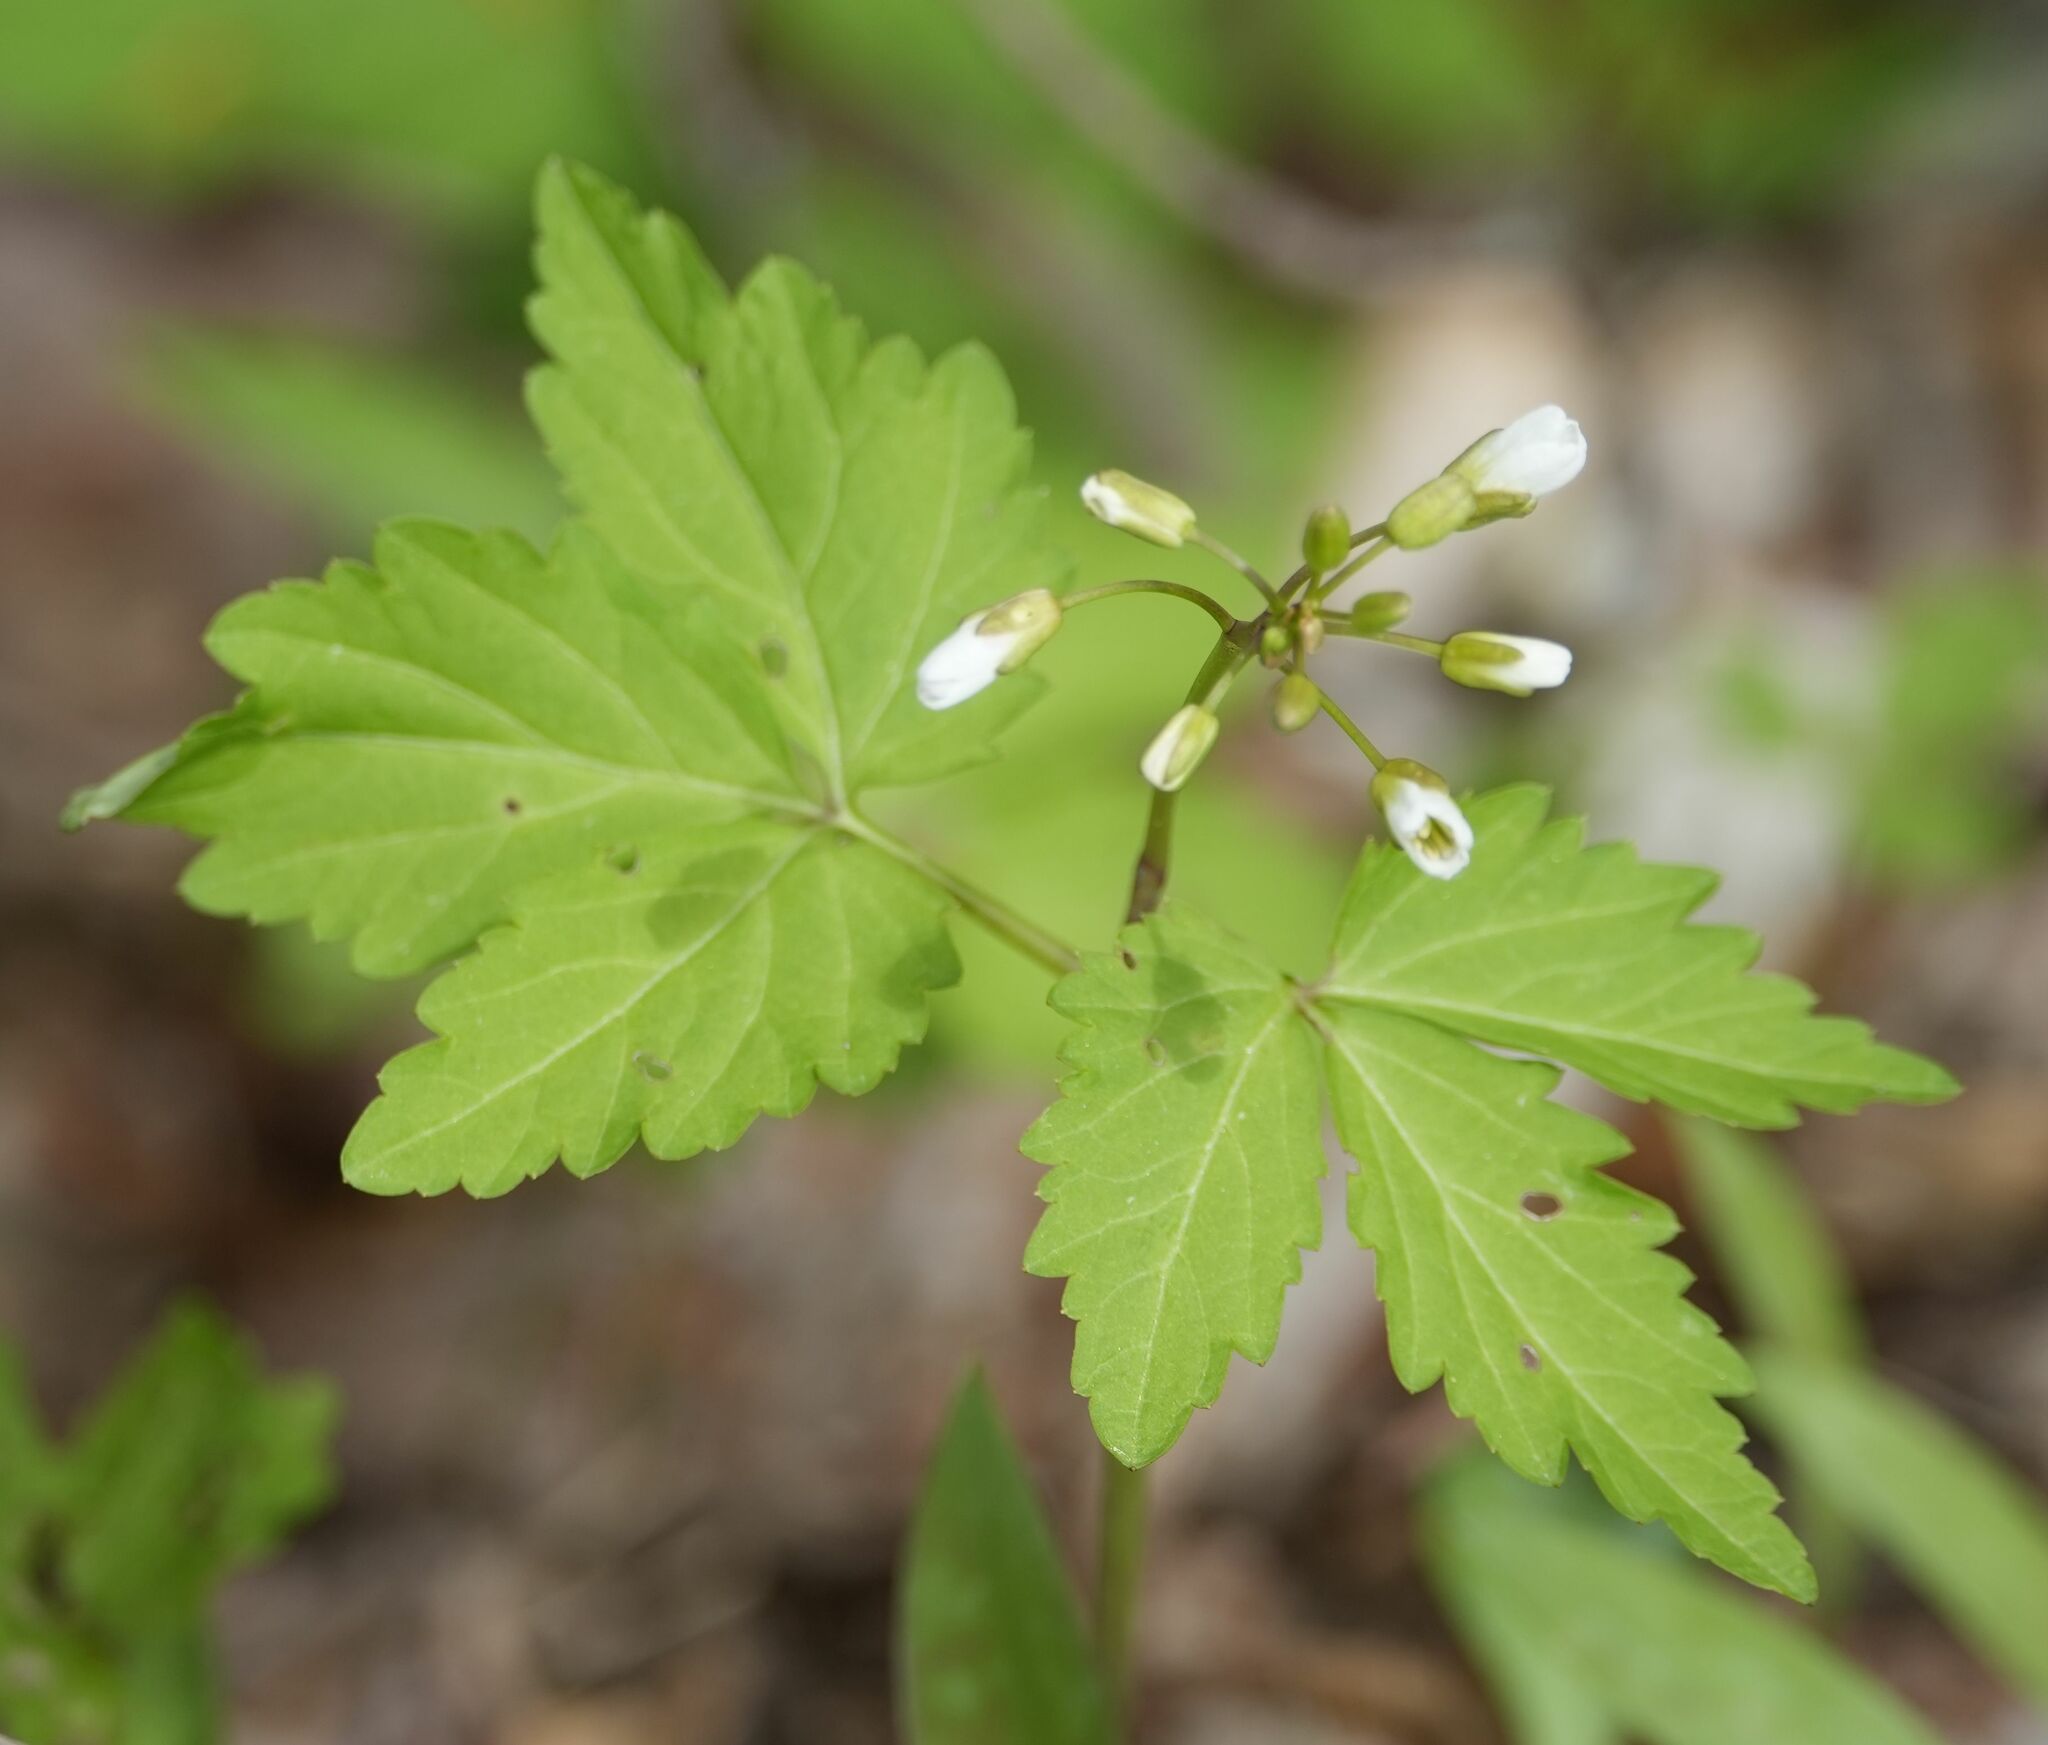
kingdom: Plantae
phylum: Tracheophyta
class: Magnoliopsida
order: Brassicales
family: Brassicaceae
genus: Cardamine
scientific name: Cardamine diphylla
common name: Broad-leaved toothwort
